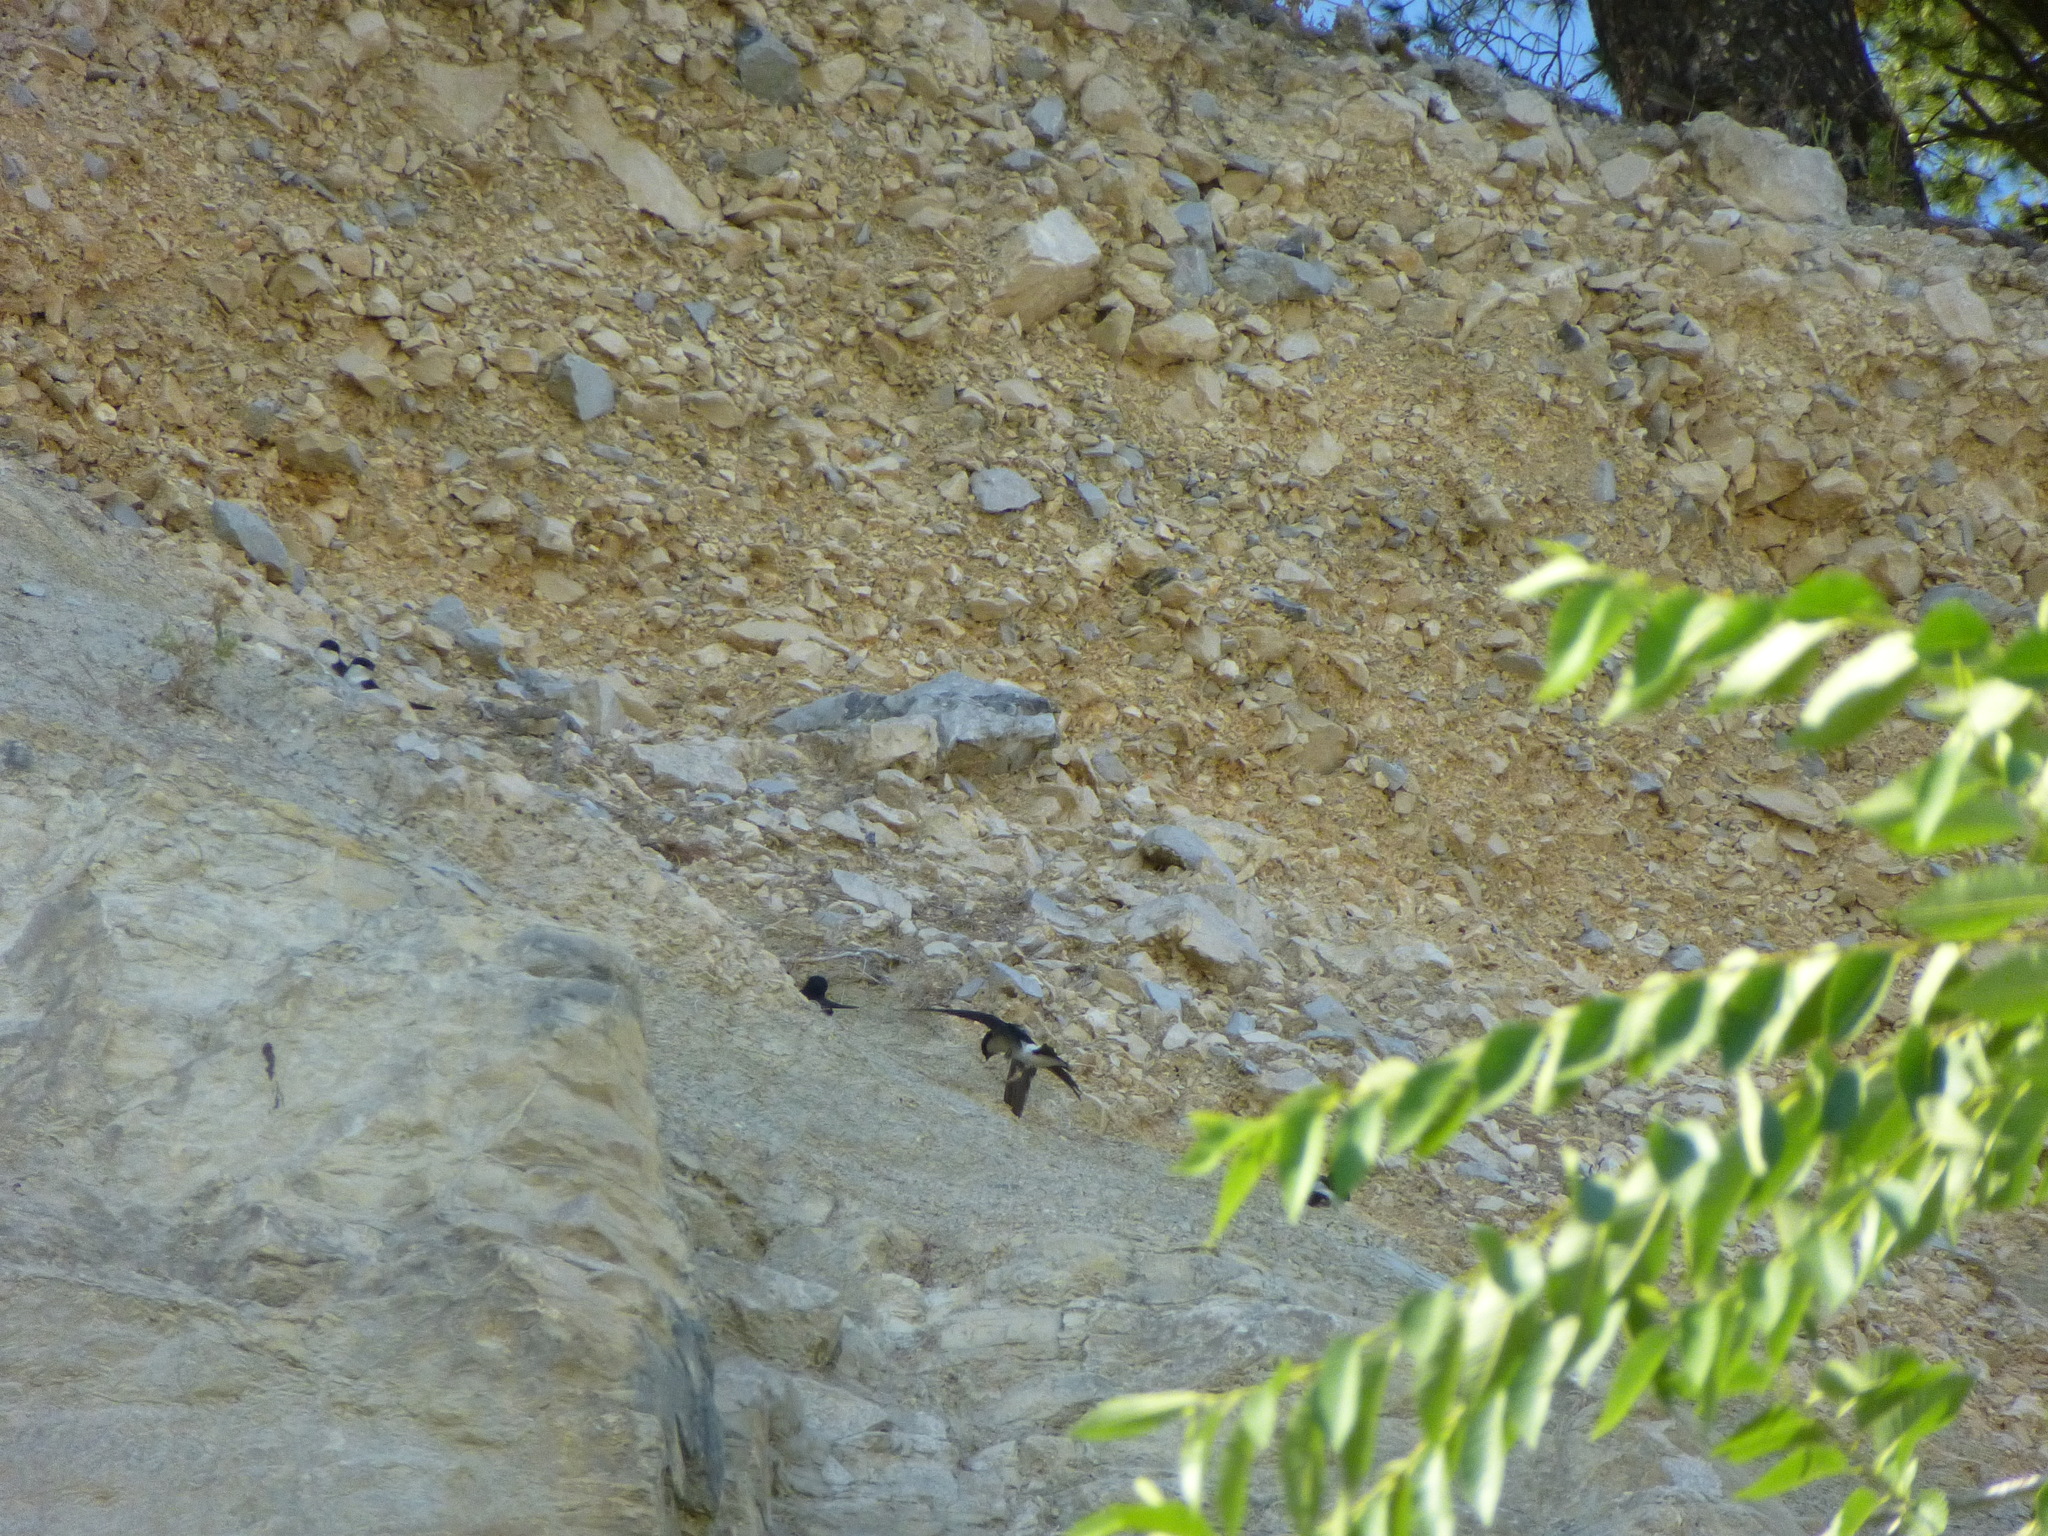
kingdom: Animalia
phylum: Chordata
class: Aves
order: Passeriformes
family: Hirundinidae
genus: Delichon
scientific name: Delichon urbicum
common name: Common house martin
